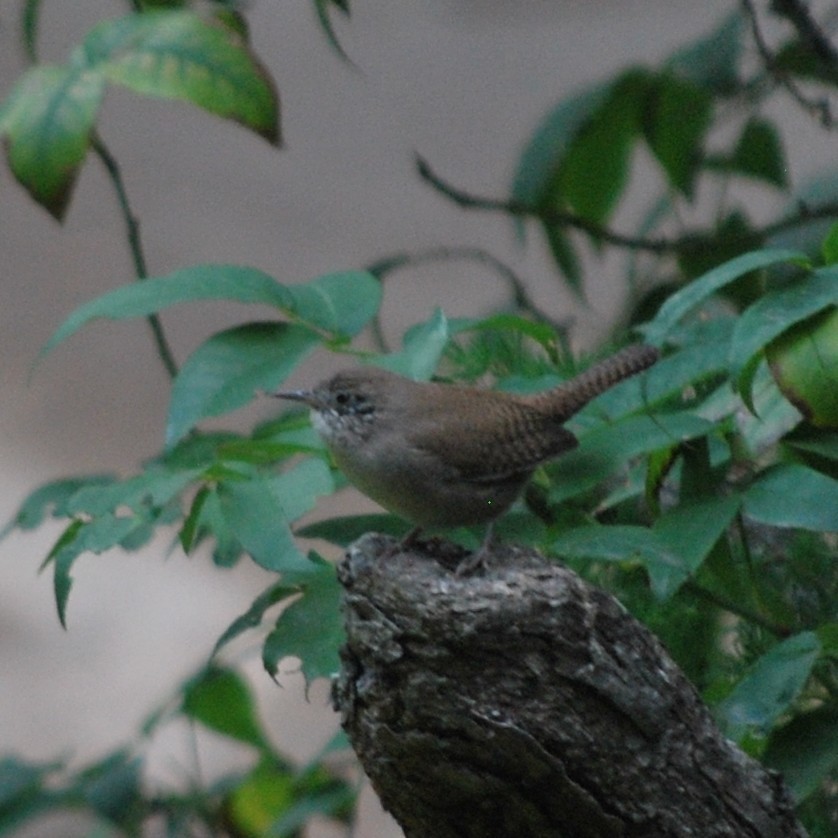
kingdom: Animalia
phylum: Chordata
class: Aves
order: Passeriformes
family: Troglodytidae
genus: Troglodytes
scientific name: Troglodytes aedon
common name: House wren
